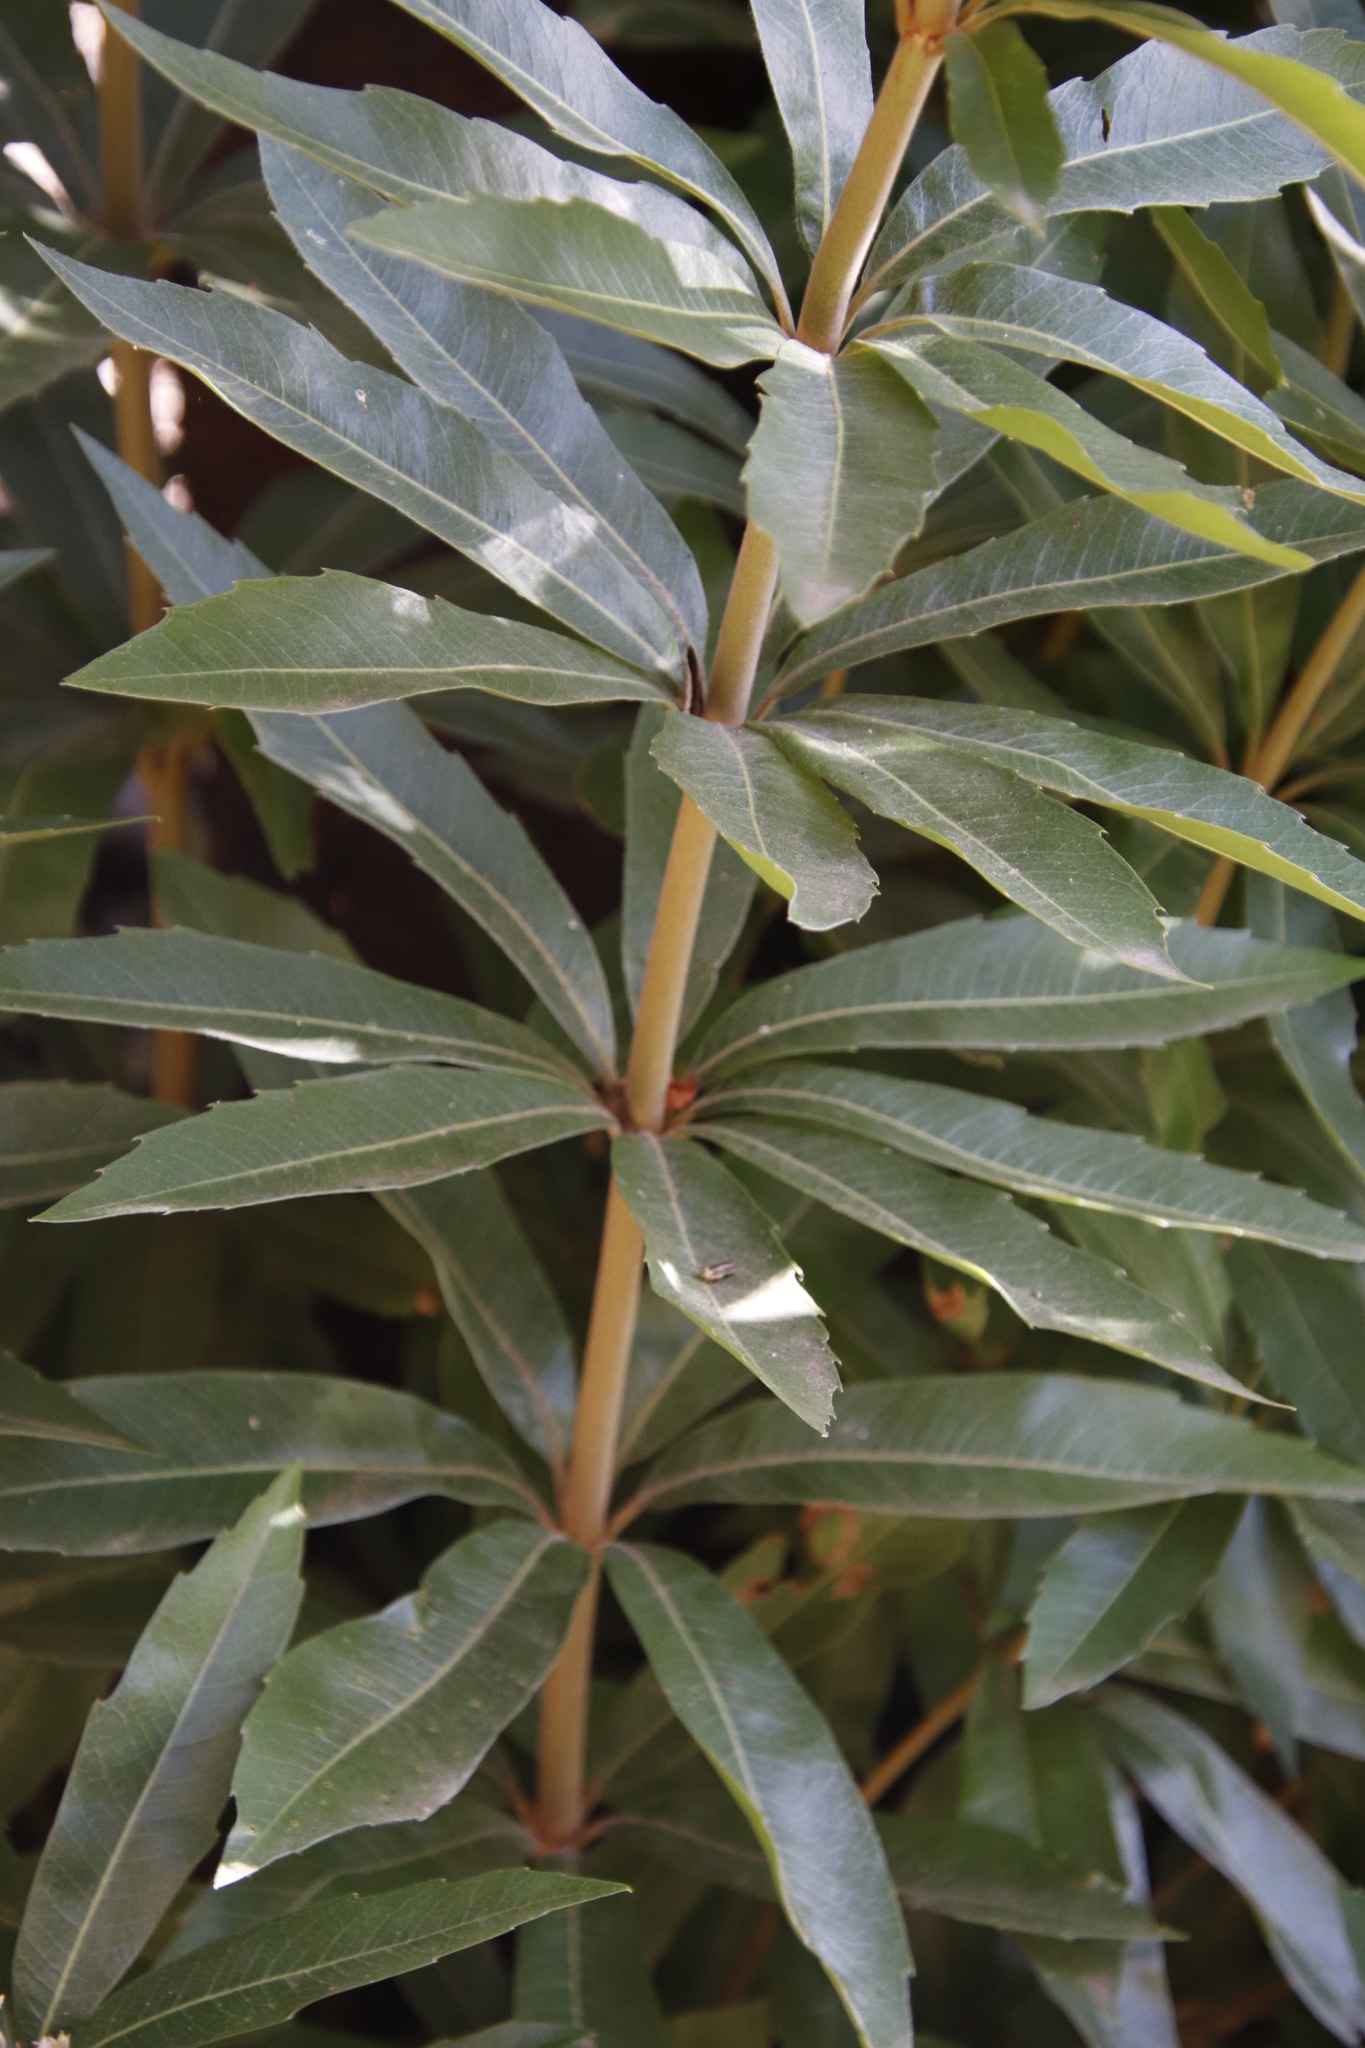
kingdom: Plantae
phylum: Tracheophyta
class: Magnoliopsida
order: Proteales
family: Proteaceae
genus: Brabejum
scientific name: Brabejum stellatifolium
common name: Wild almond
